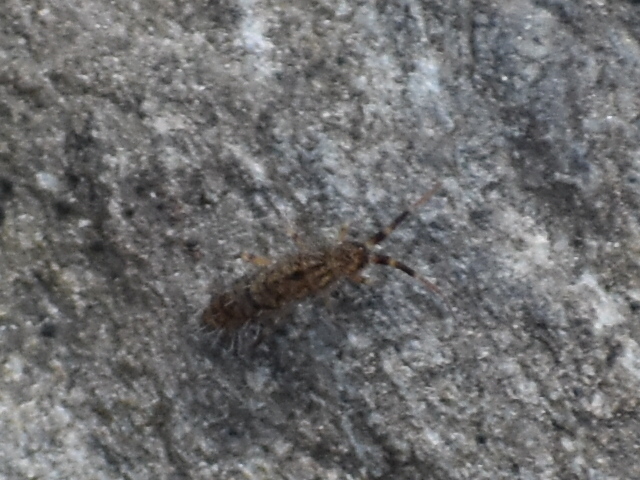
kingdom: Animalia
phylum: Arthropoda
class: Collembola
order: Entomobryomorpha
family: Orchesellidae
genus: Orchesella
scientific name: Orchesella villosa
